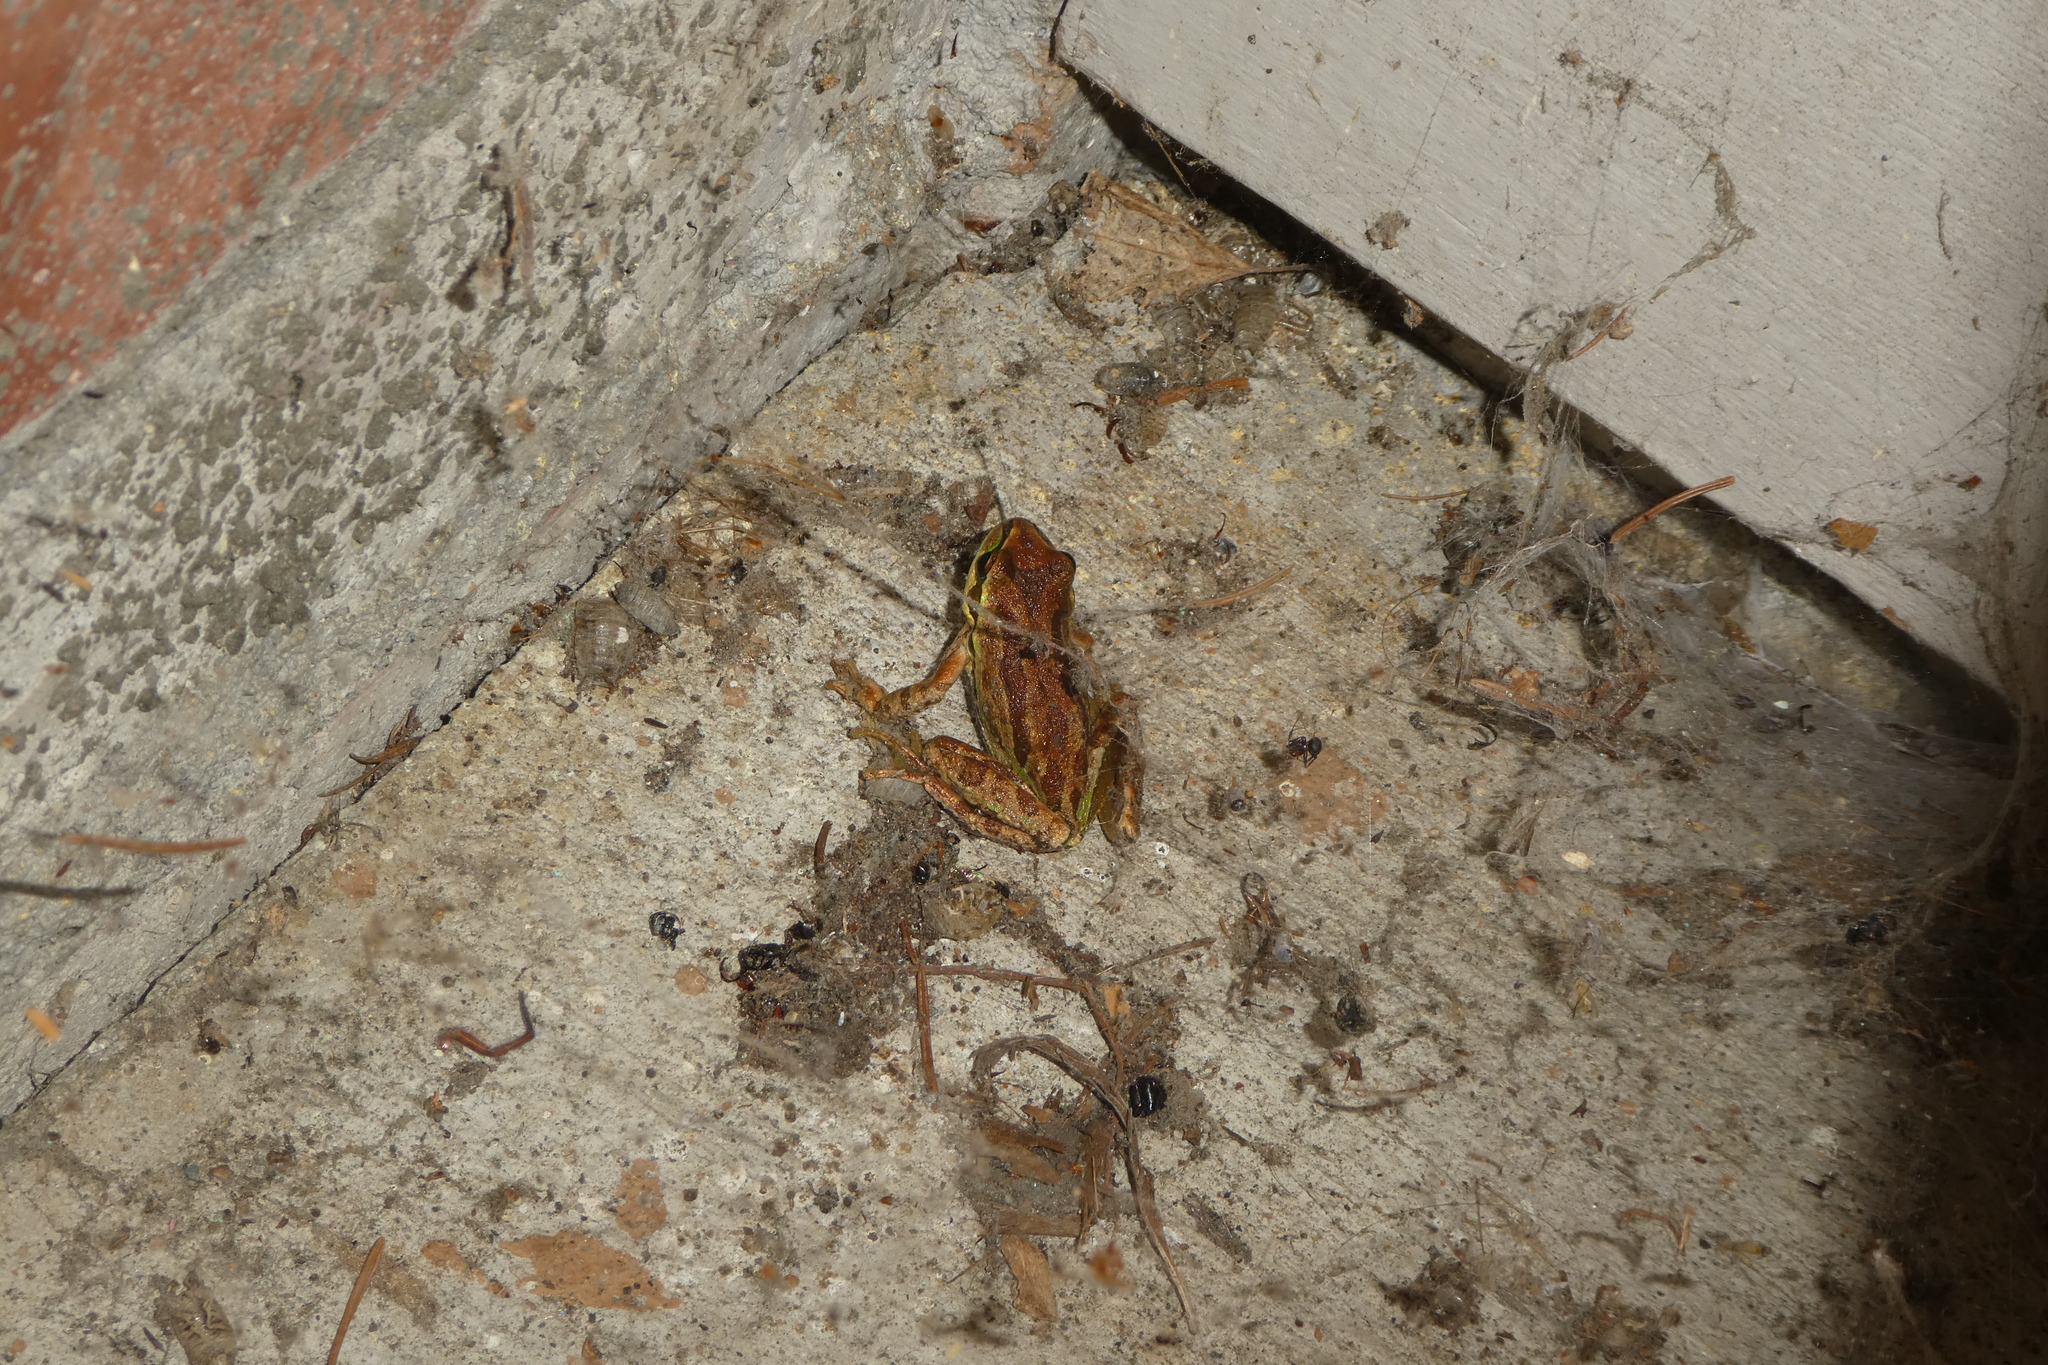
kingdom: Animalia
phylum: Chordata
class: Amphibia
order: Anura
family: Hylidae
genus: Pseudacris
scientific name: Pseudacris regilla
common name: Pacific chorus frog
